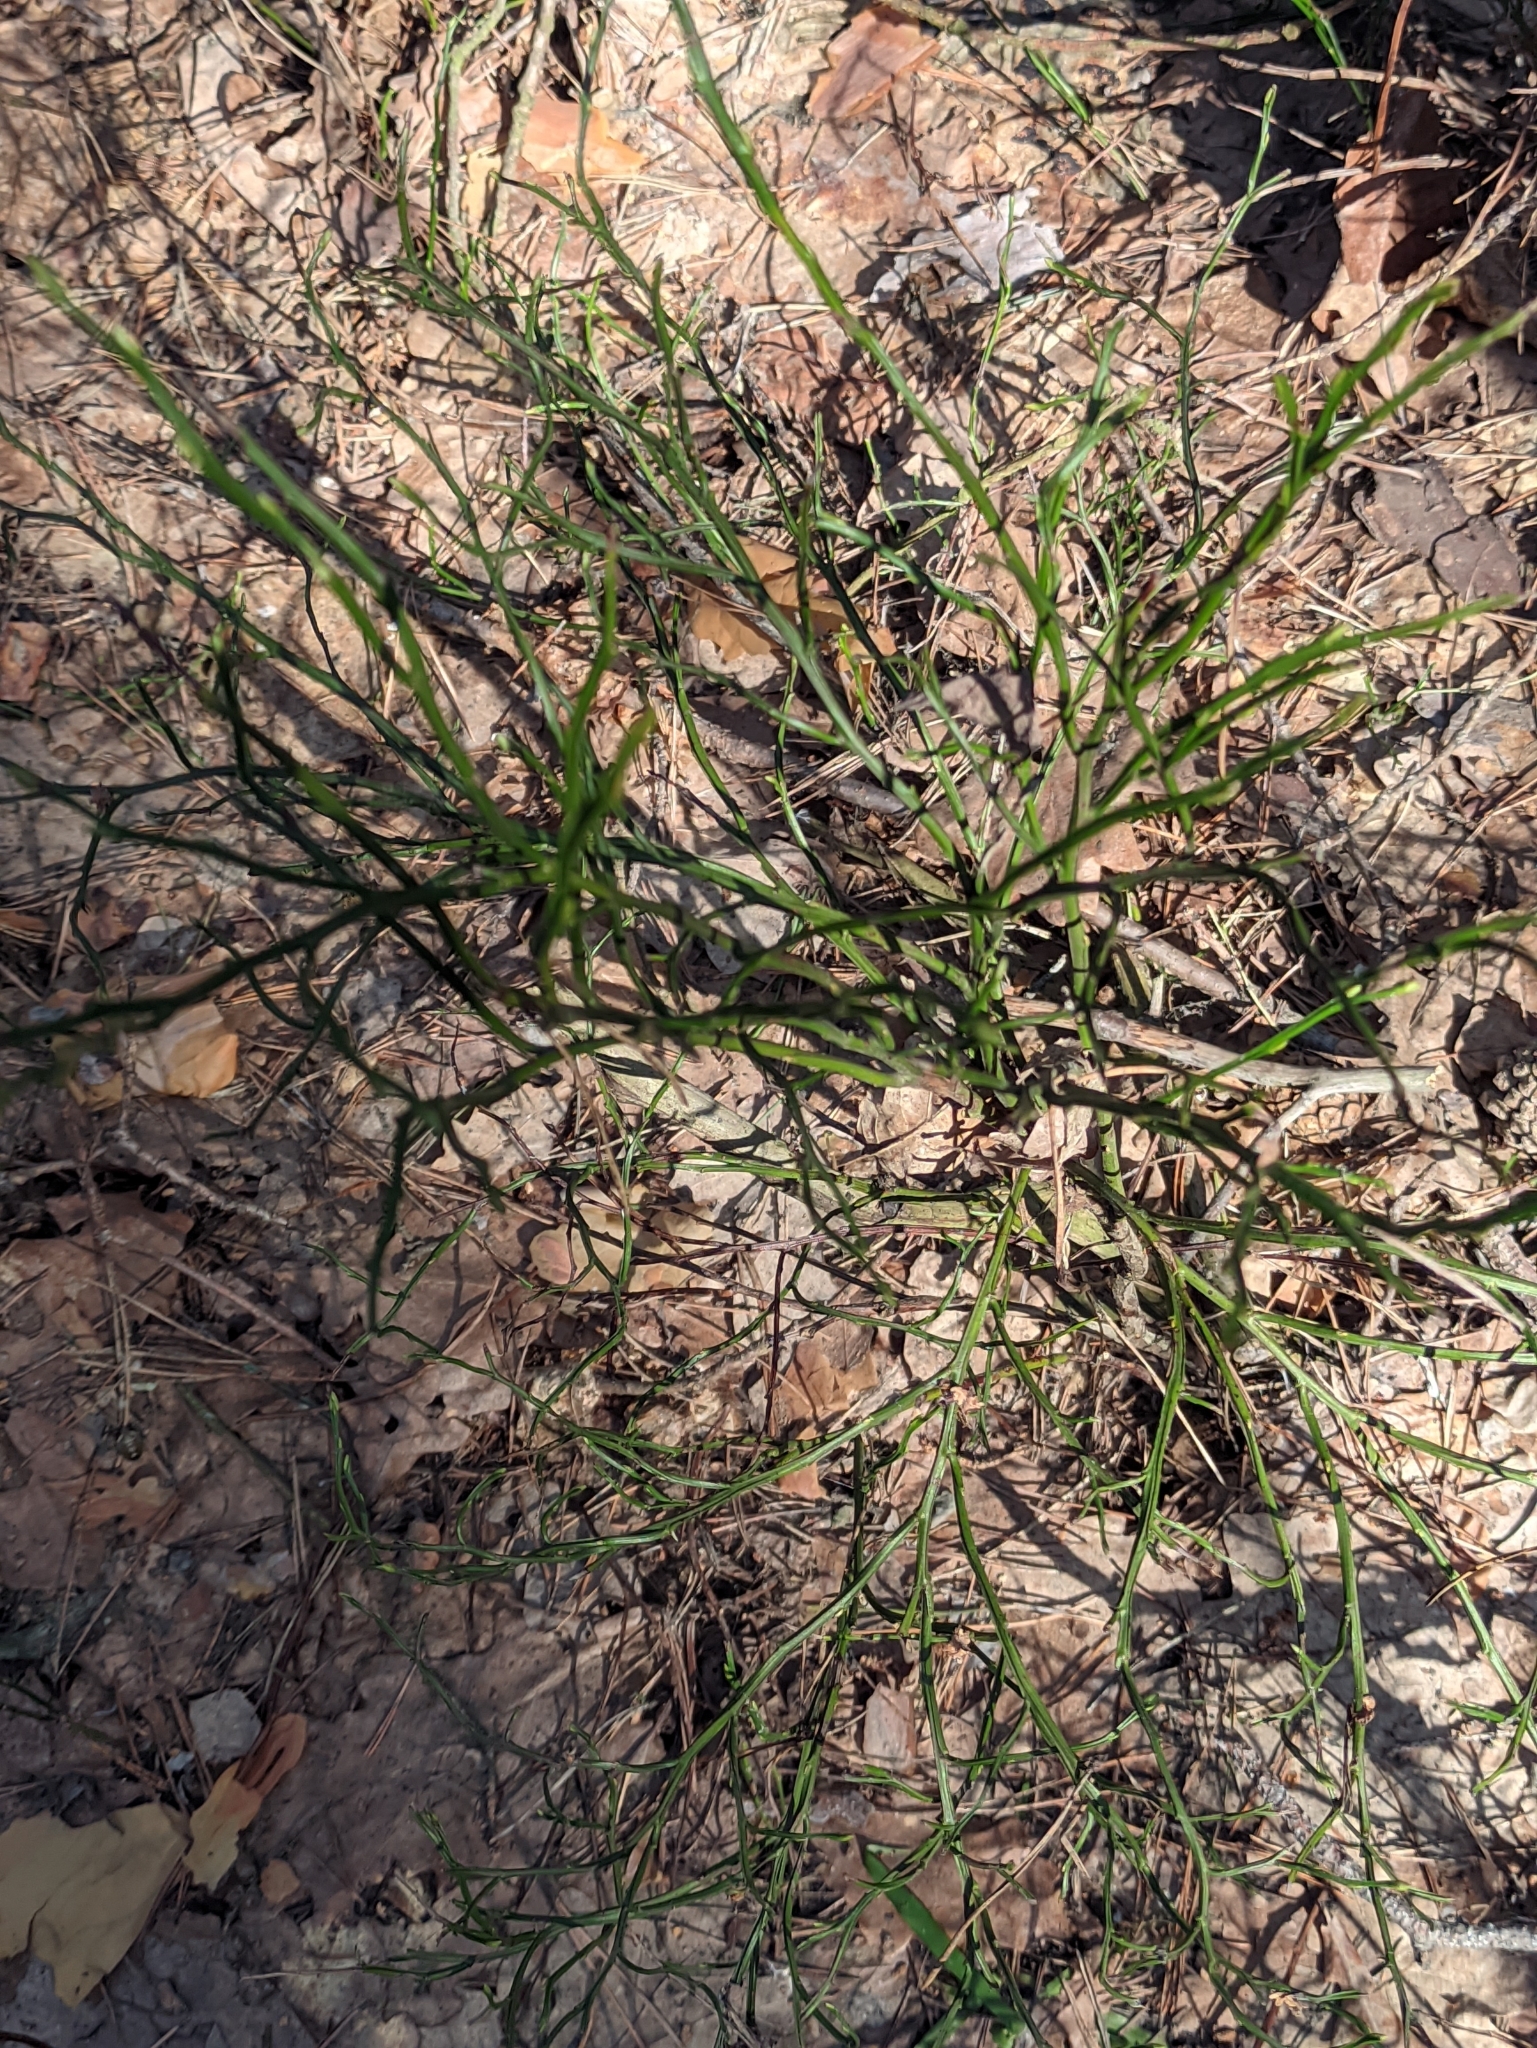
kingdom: Plantae
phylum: Tracheophyta
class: Magnoliopsida
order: Ericales
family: Ericaceae
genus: Vaccinium
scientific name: Vaccinium myrtillus
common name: Bilberry
